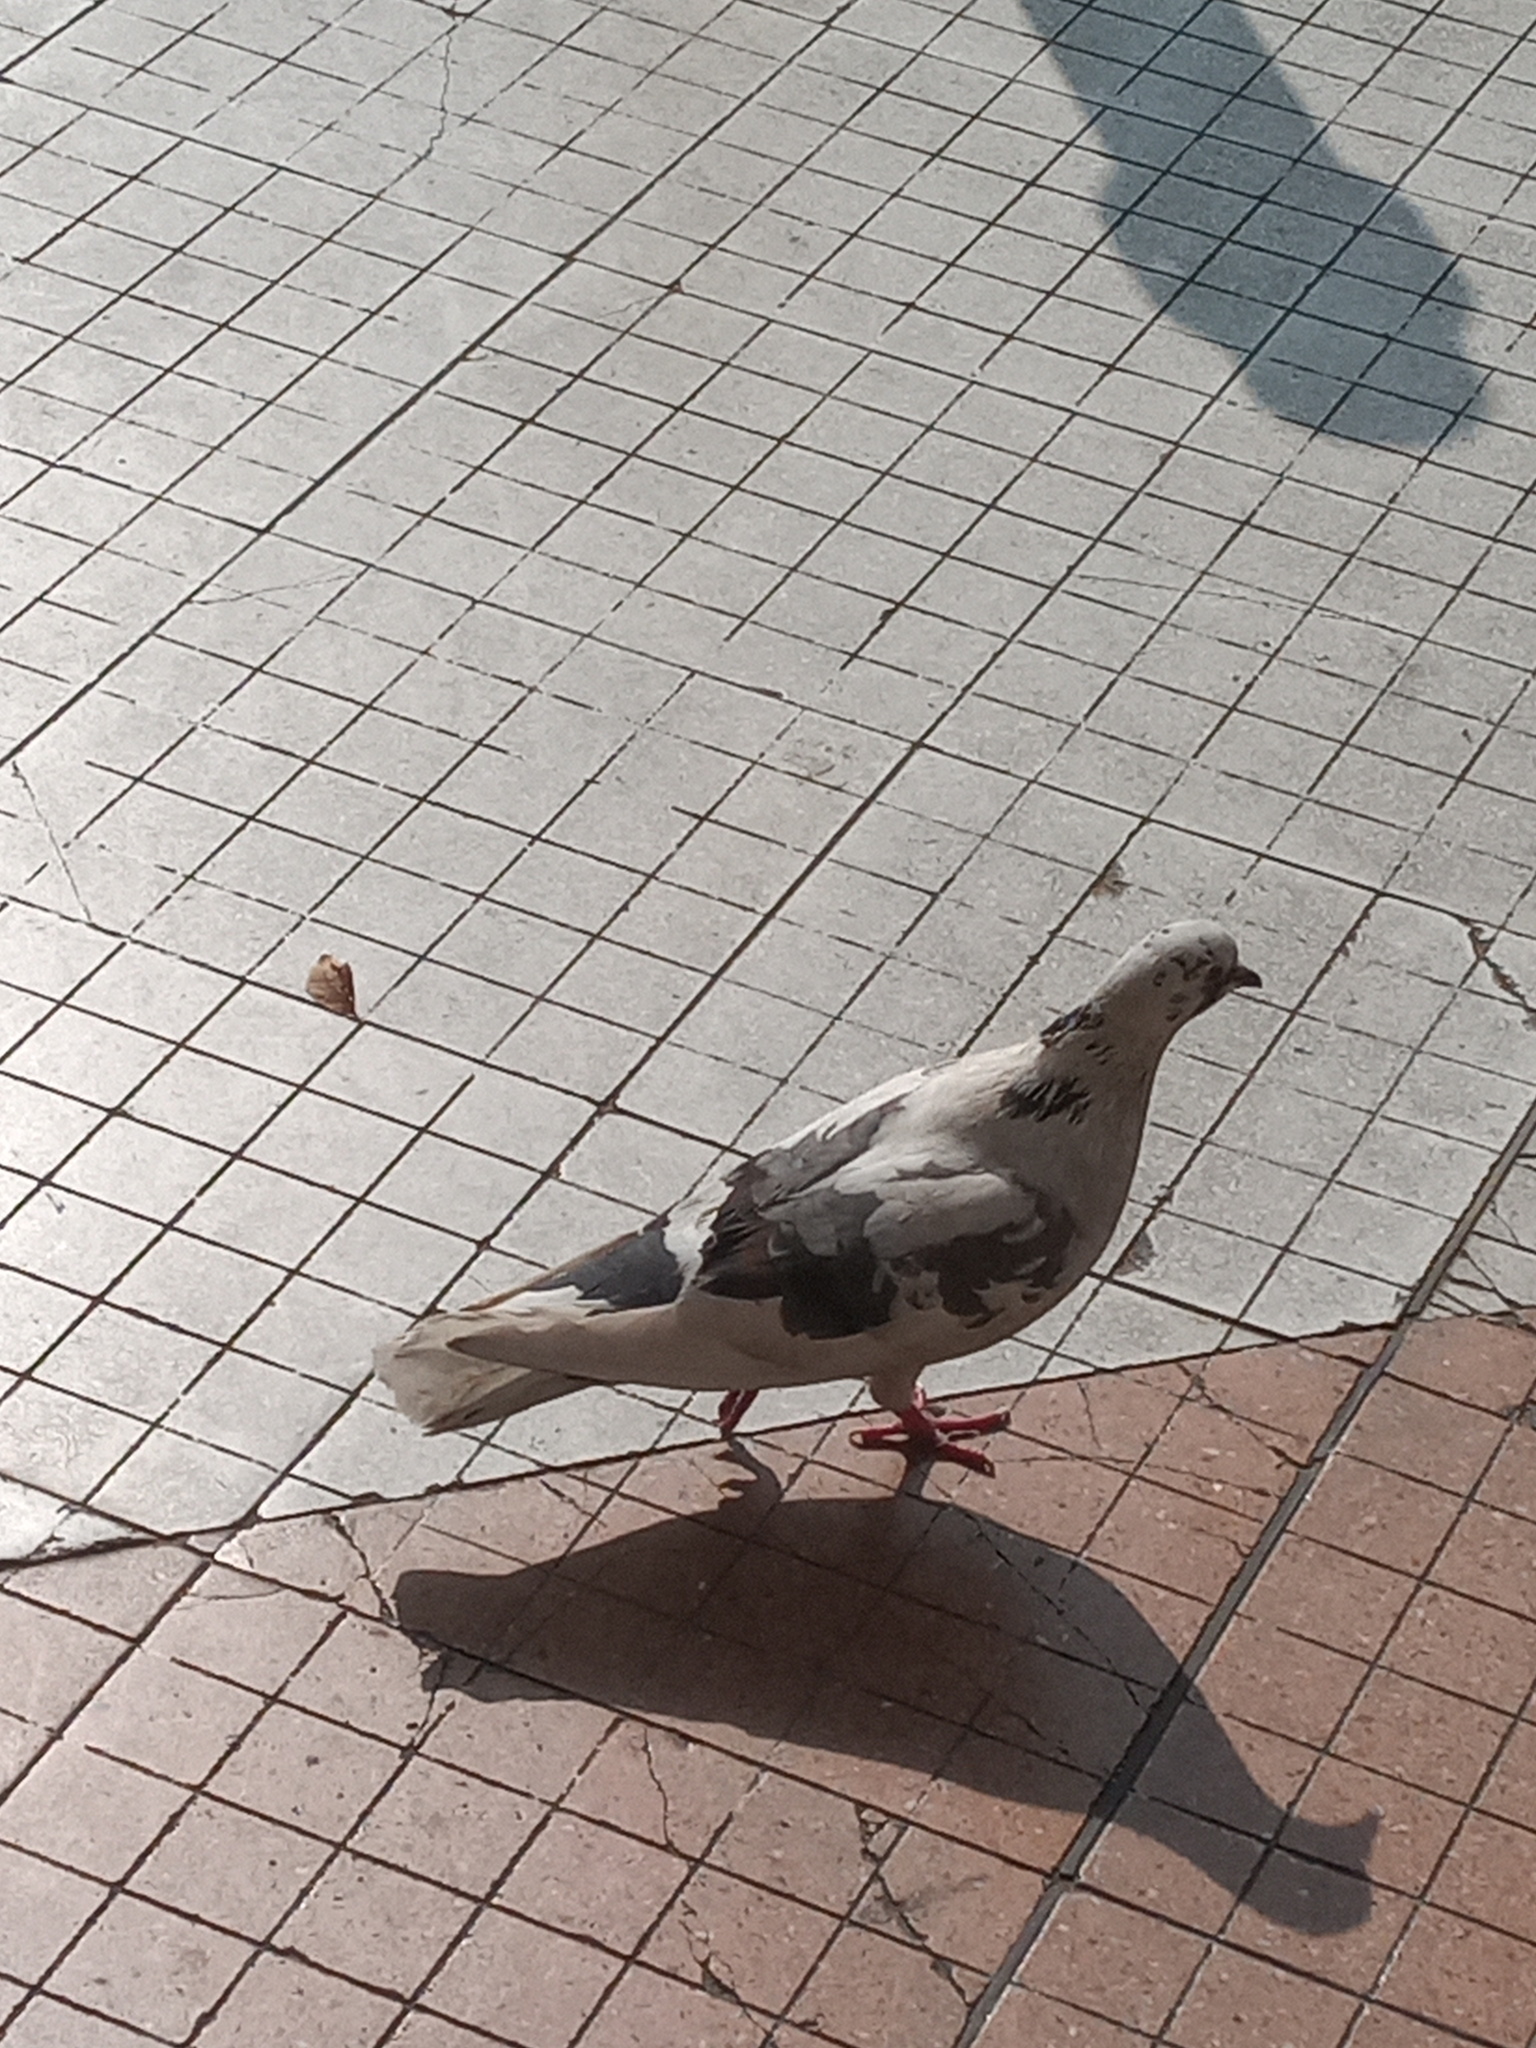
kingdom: Animalia
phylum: Chordata
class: Aves
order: Columbiformes
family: Columbidae
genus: Columba
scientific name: Columba livia
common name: Rock pigeon
